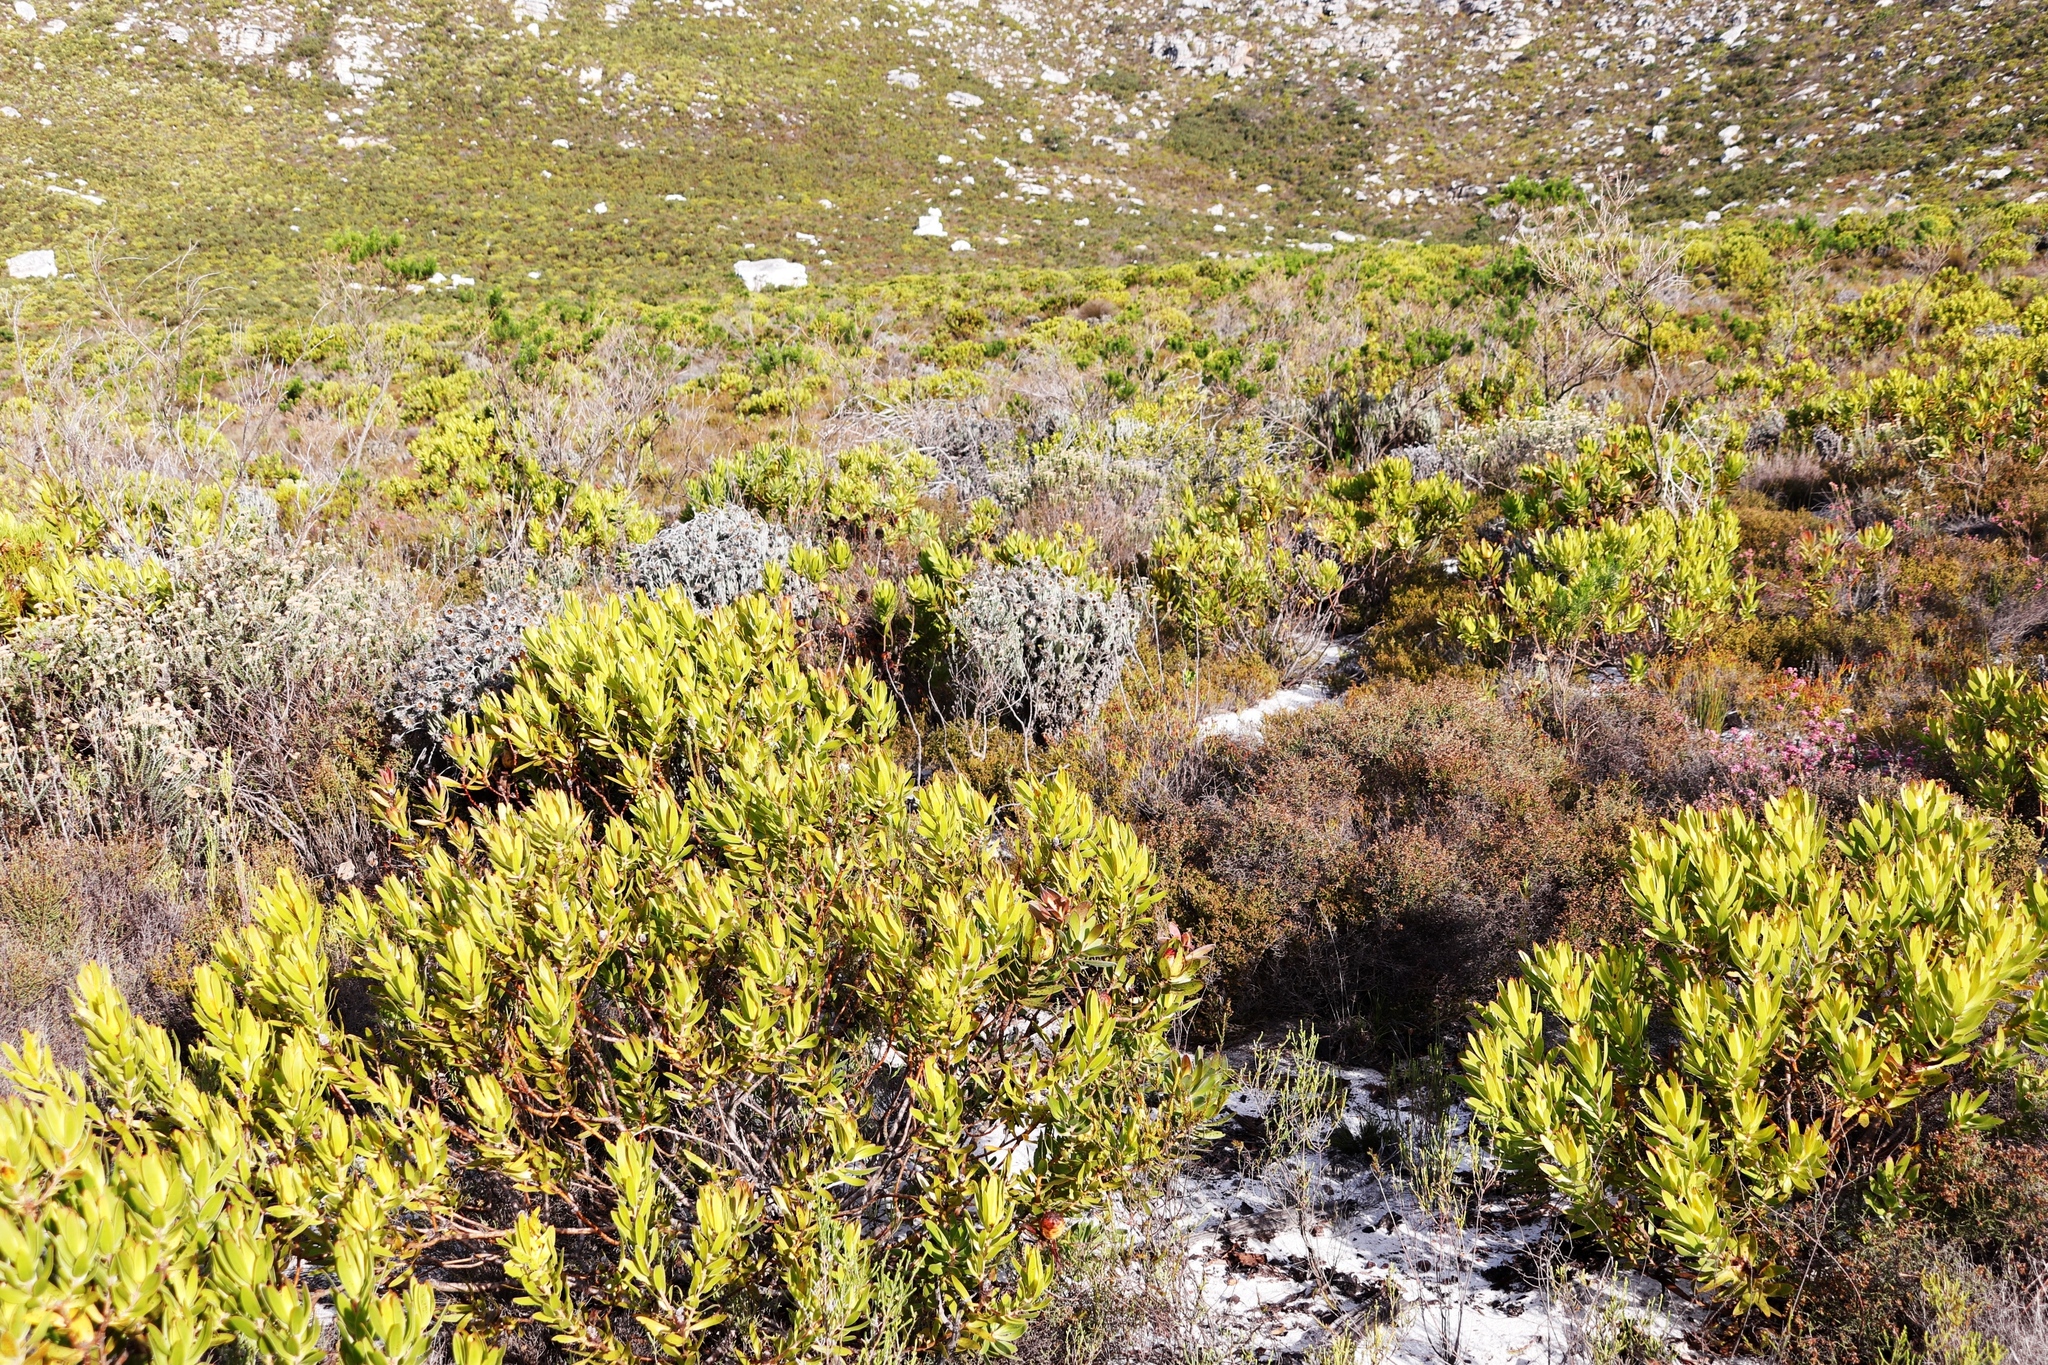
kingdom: Plantae
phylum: Tracheophyta
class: Magnoliopsida
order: Asterales
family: Asteraceae
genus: Syncarpha
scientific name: Syncarpha vestita
